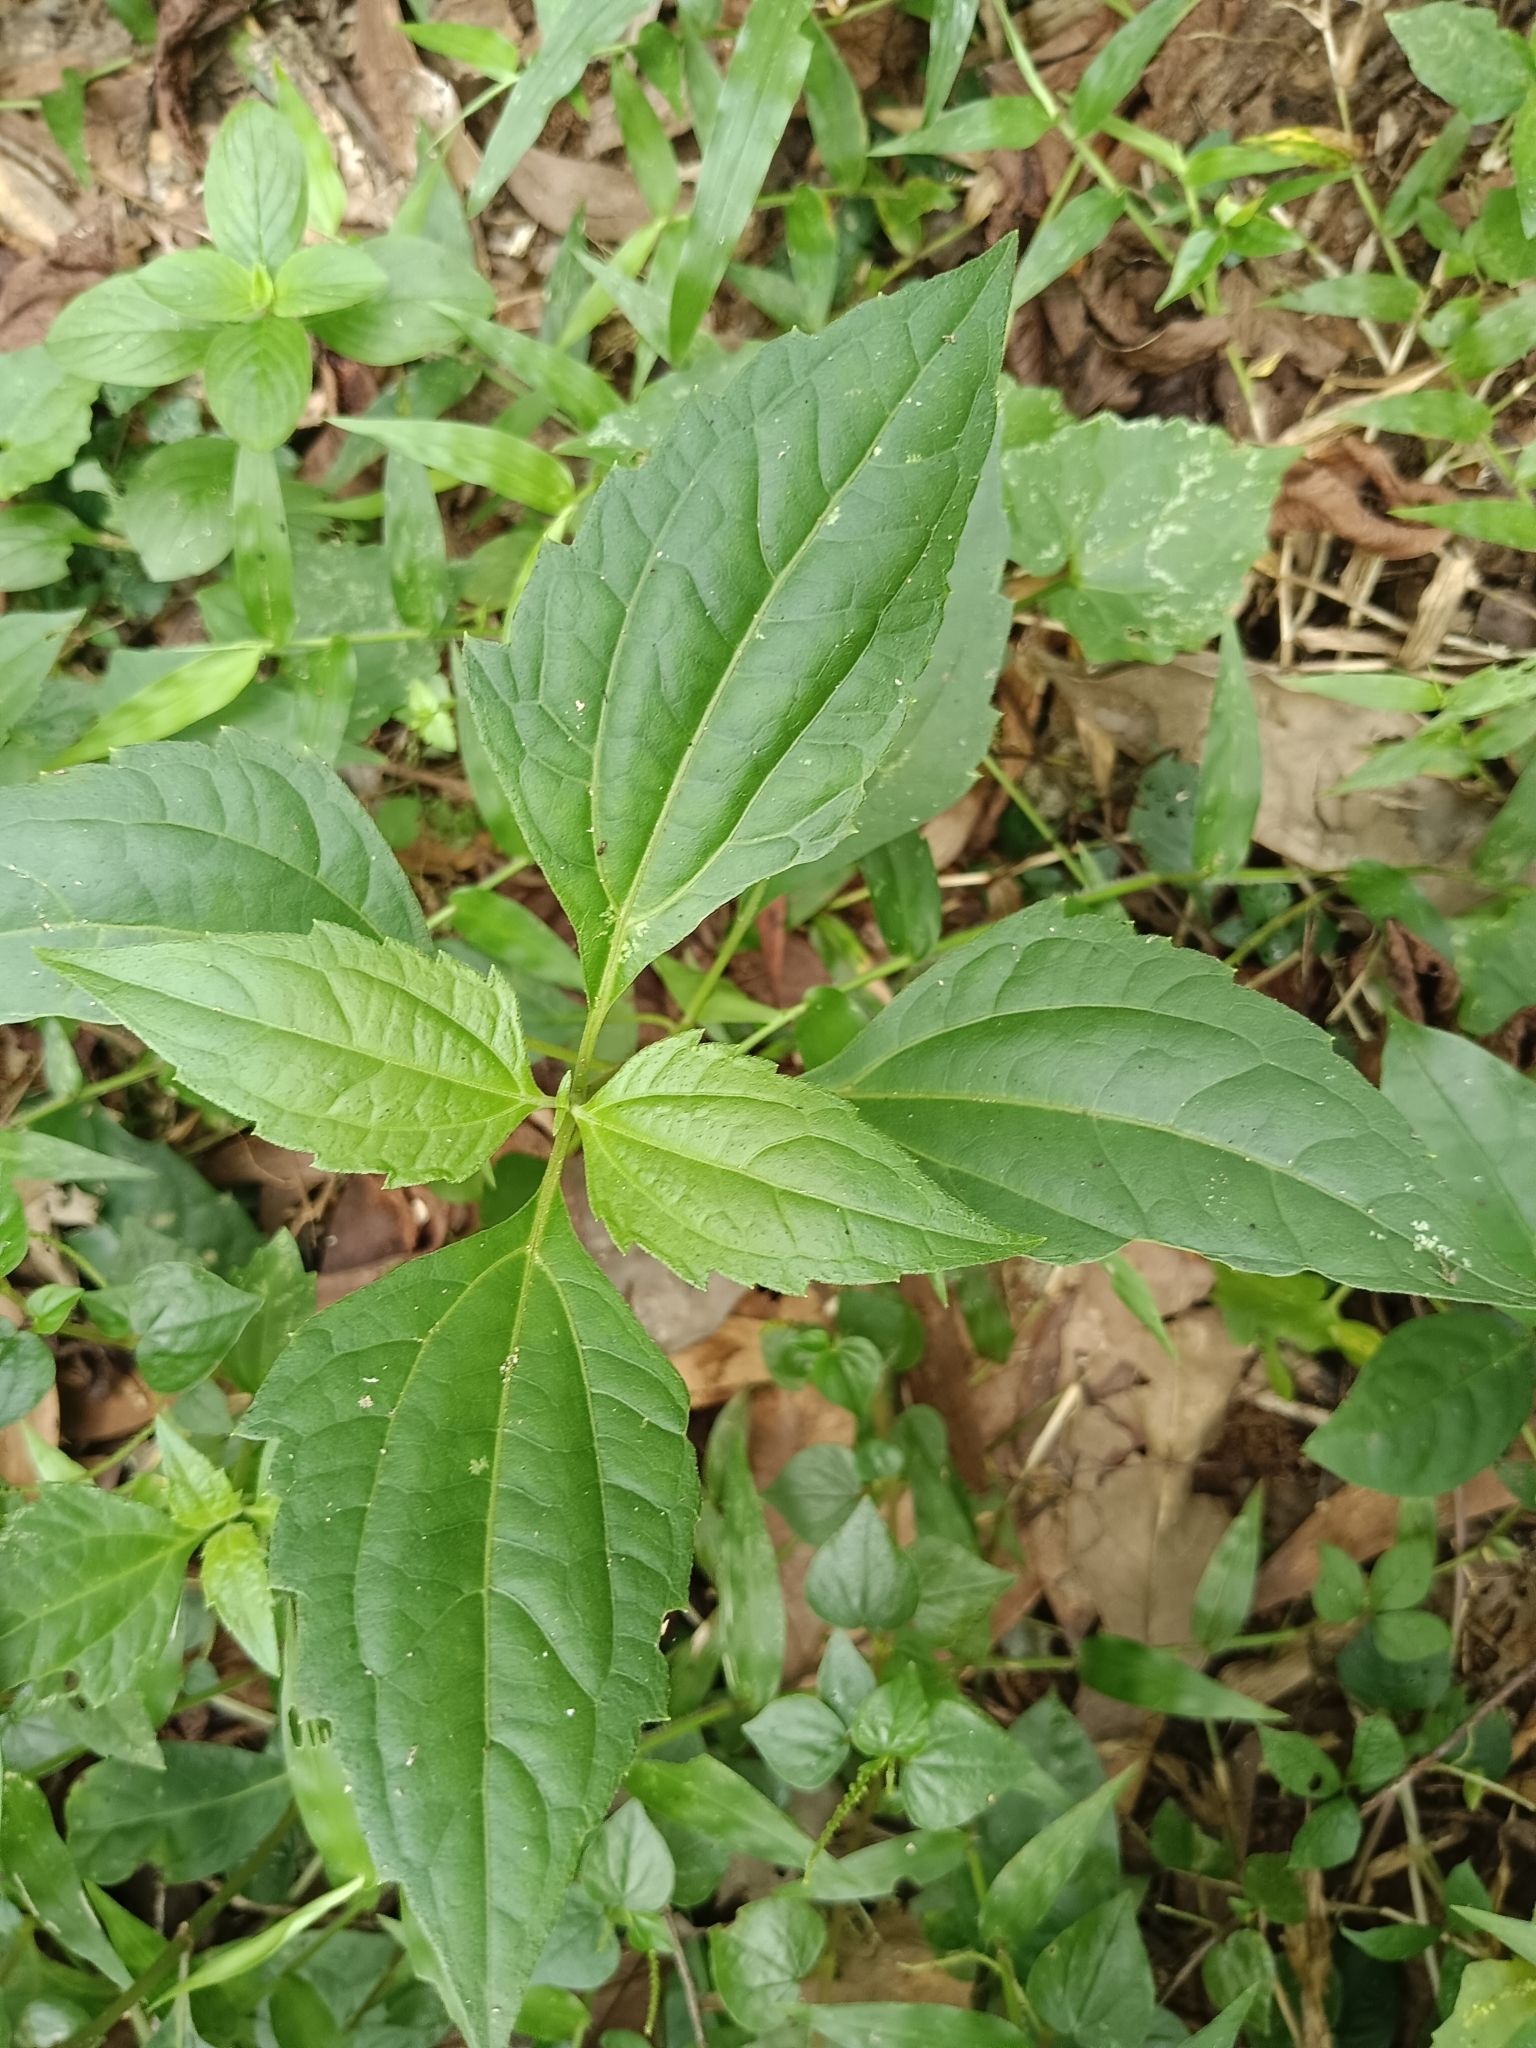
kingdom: Plantae
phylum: Tracheophyta
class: Magnoliopsida
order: Asterales
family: Asteraceae
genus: Chromolaena
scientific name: Chromolaena odorata
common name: Siamweed
